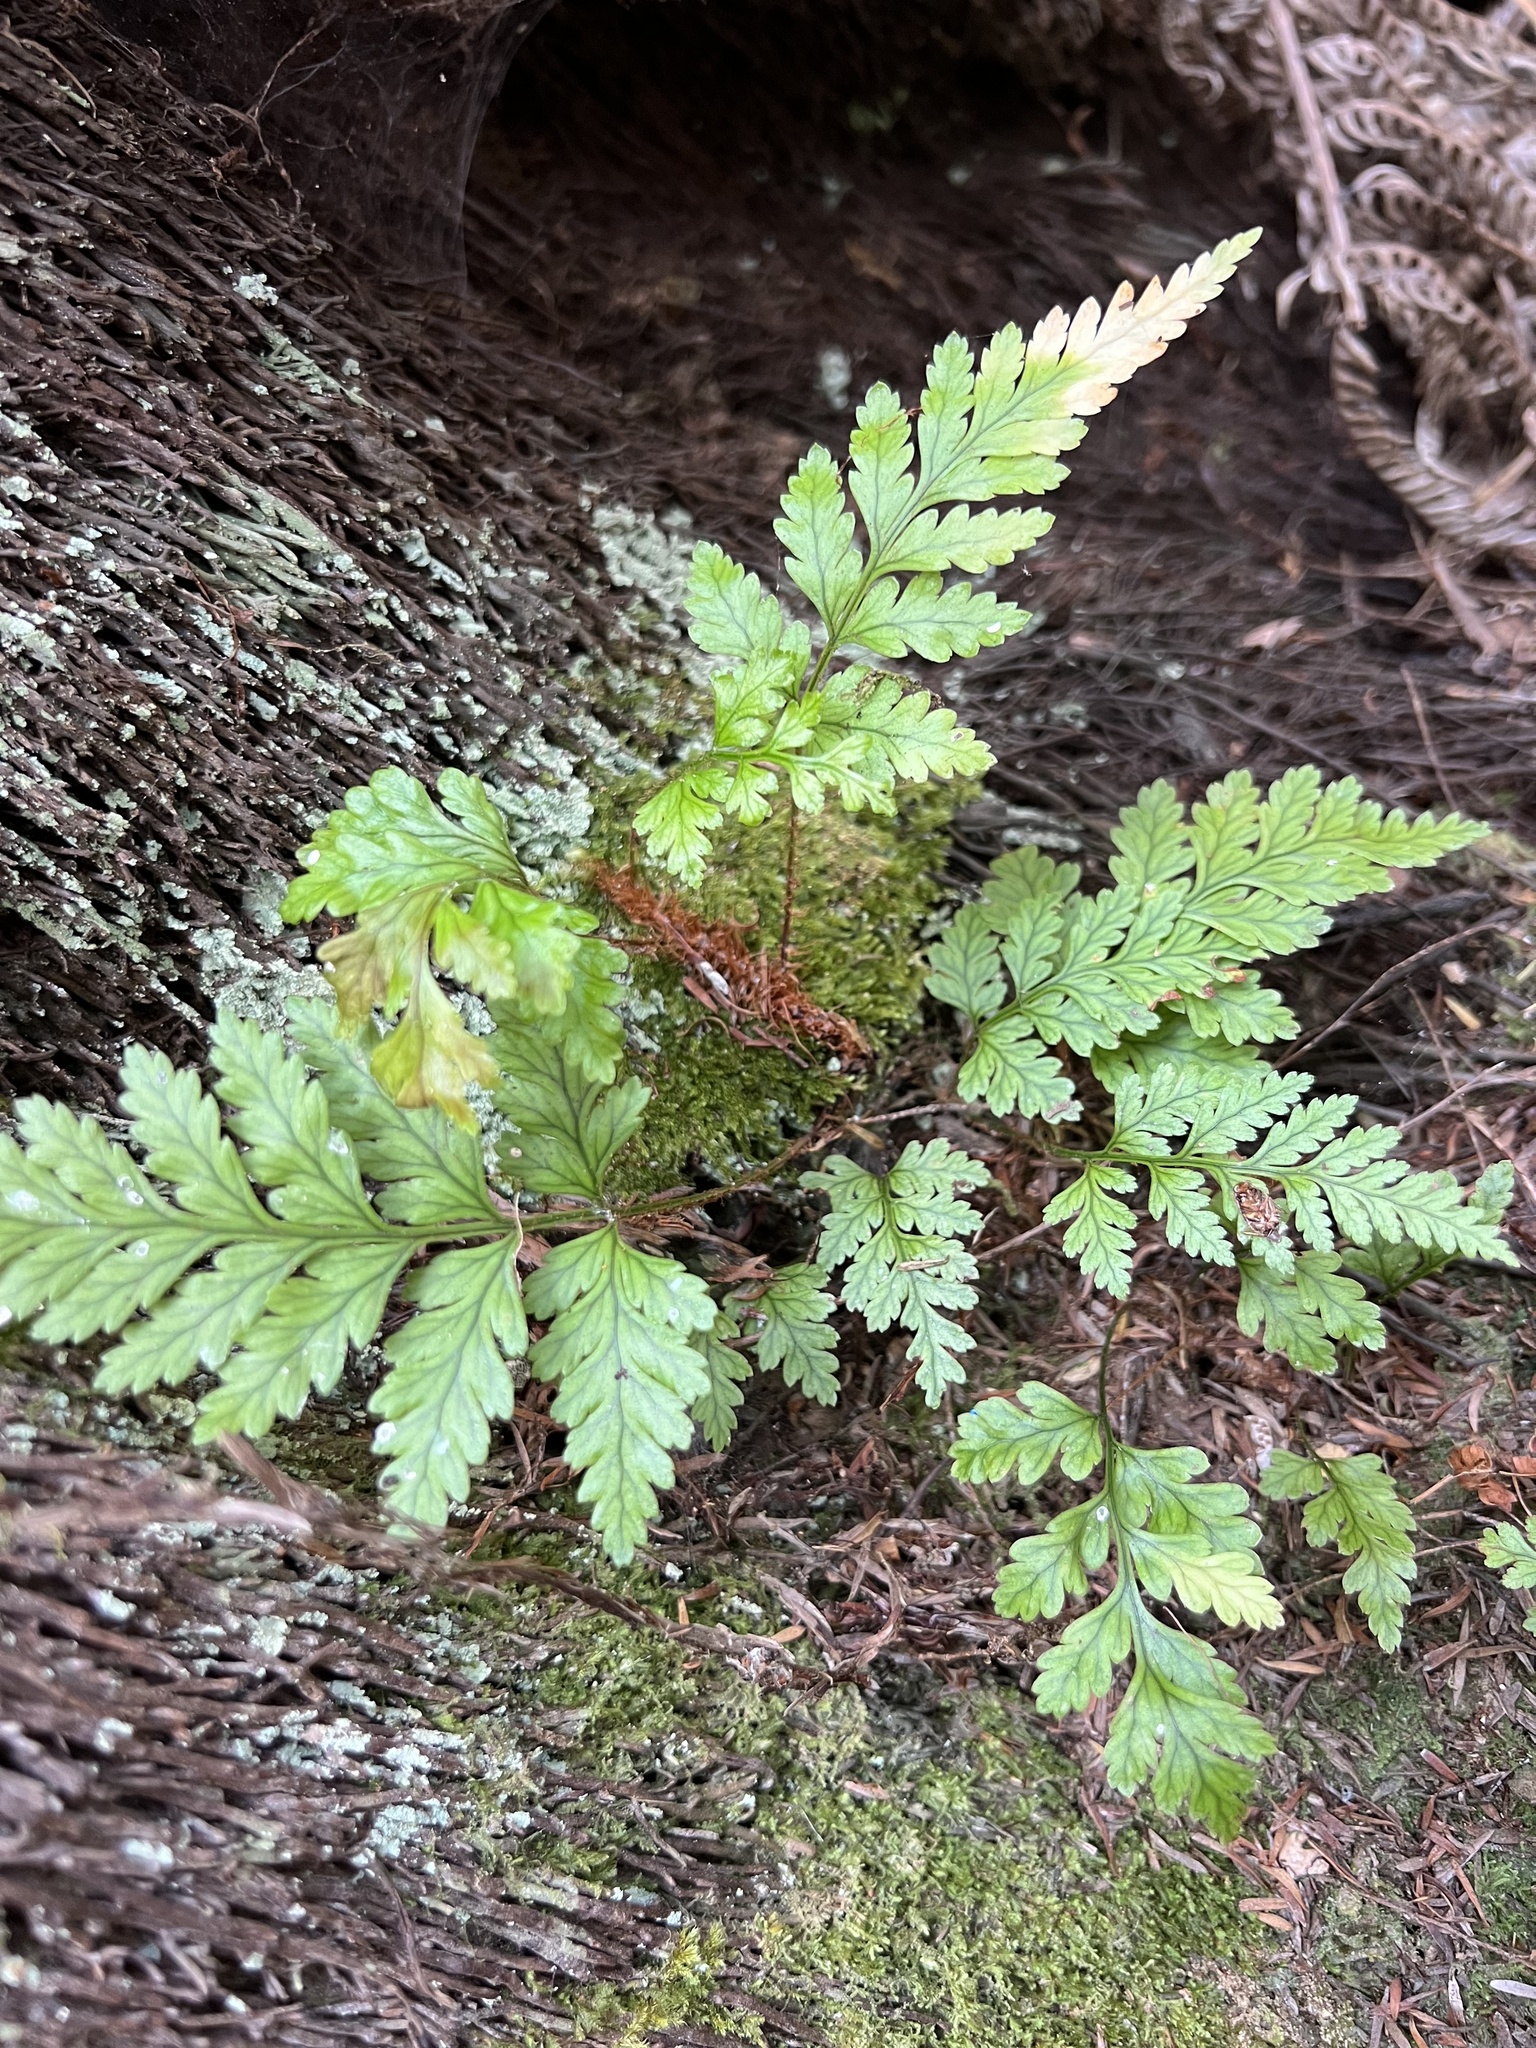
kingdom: Plantae
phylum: Tracheophyta
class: Polypodiopsida
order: Polypodiales
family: Dryopteridaceae
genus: Rumohra
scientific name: Rumohra adiantiformis
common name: Leather fern
